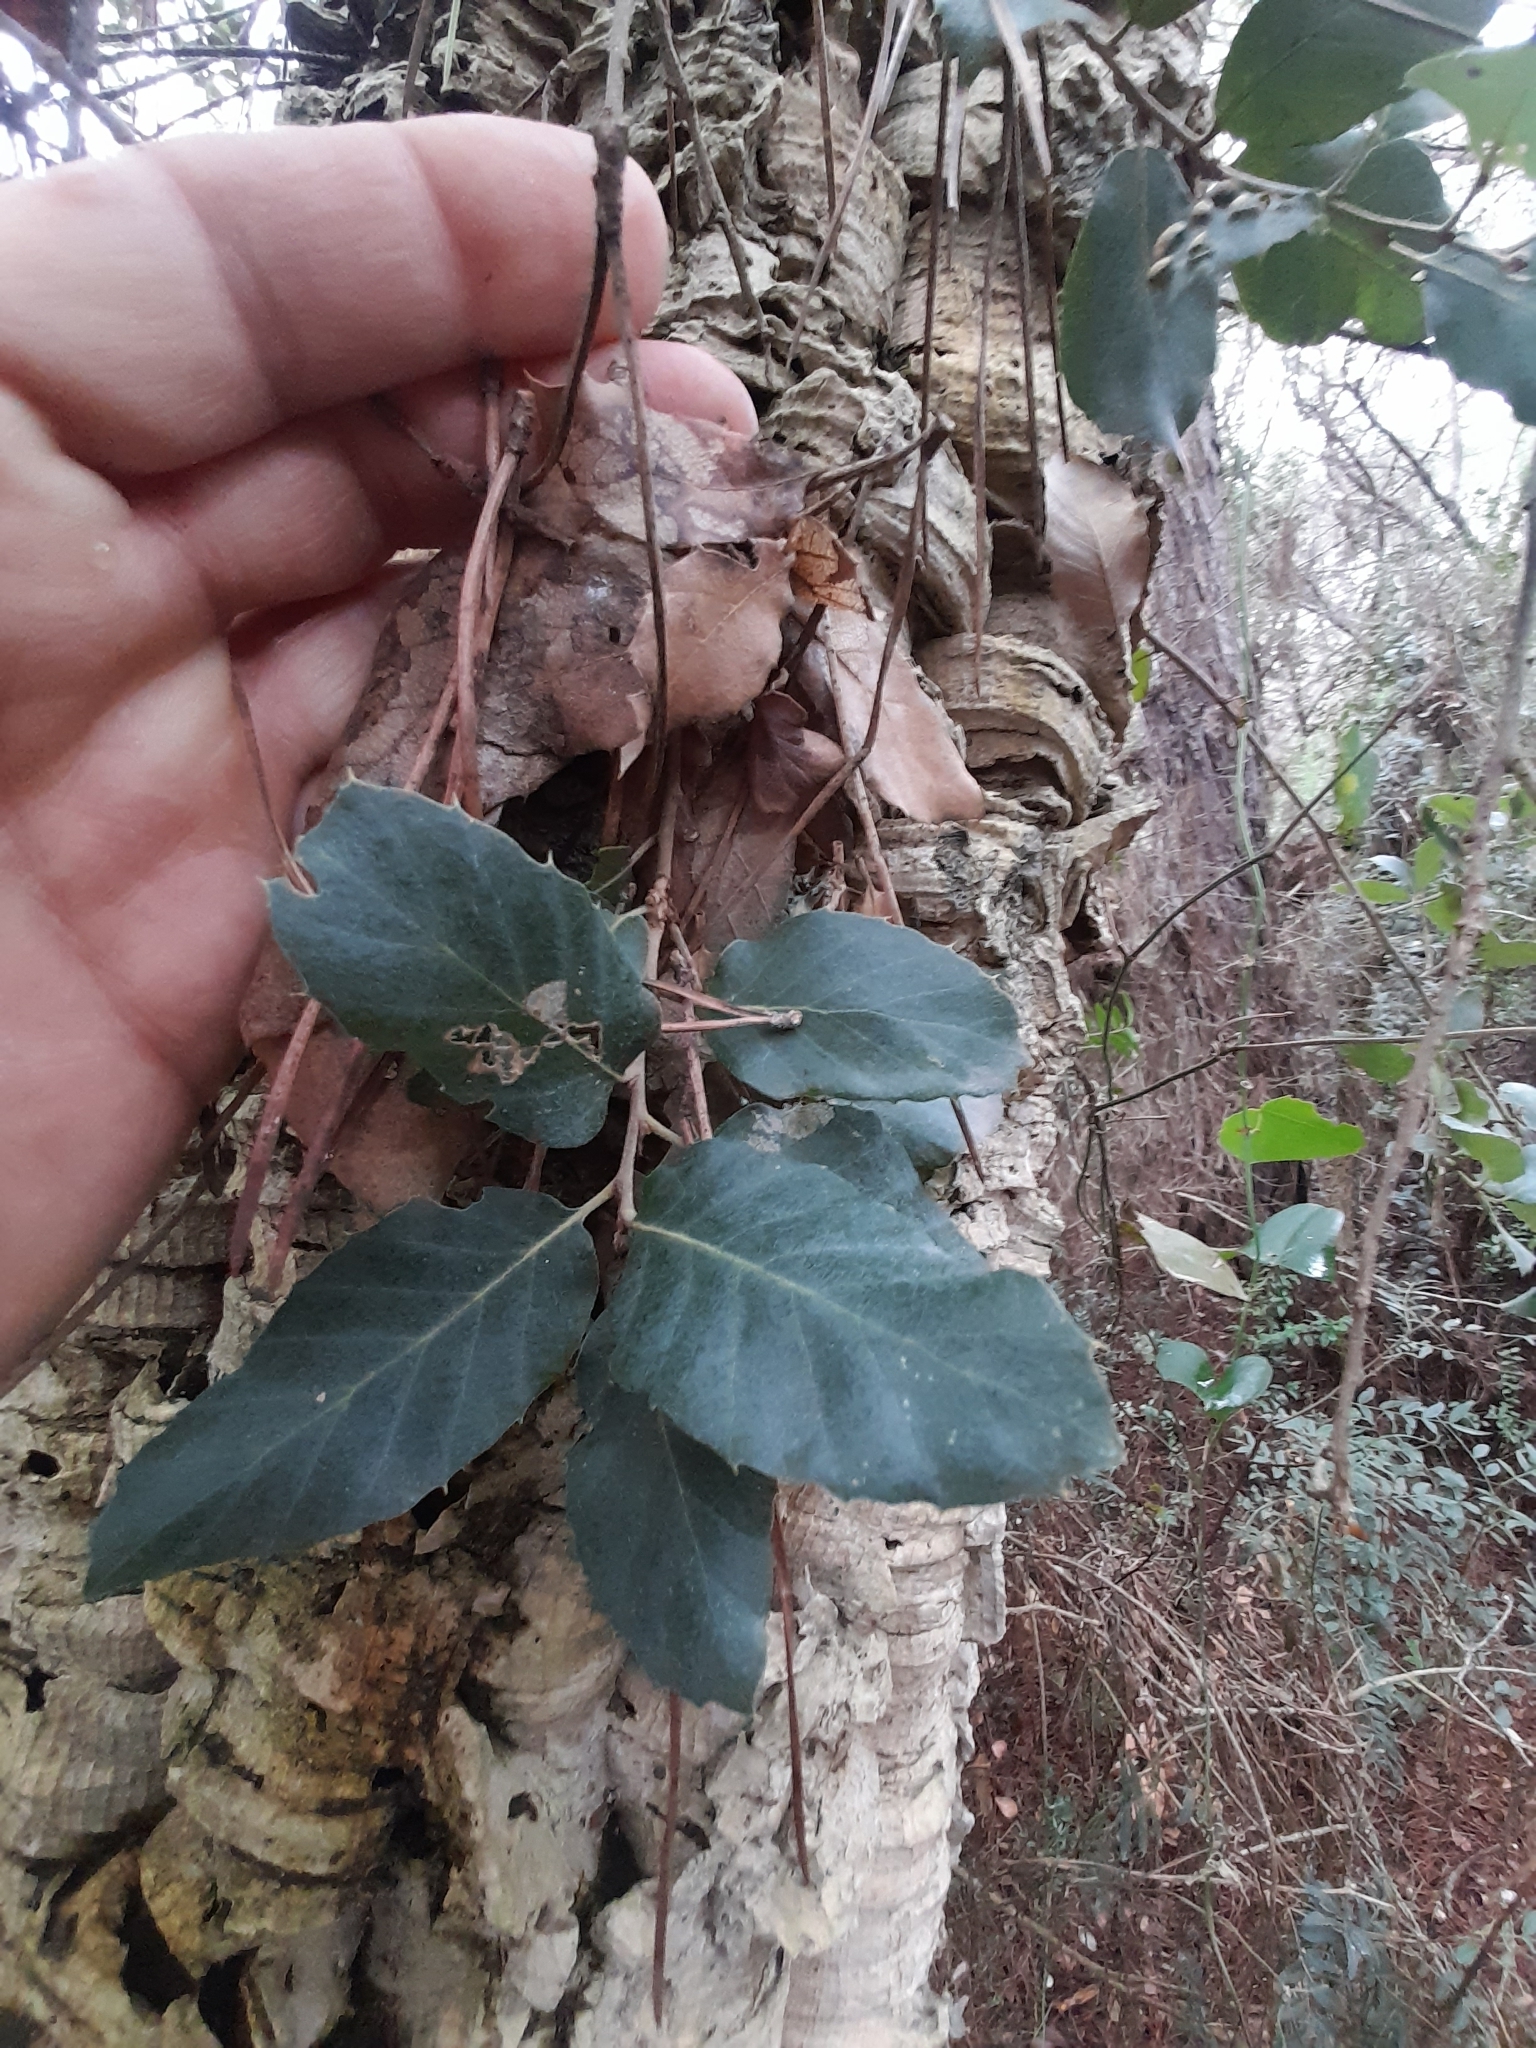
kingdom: Plantae
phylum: Tracheophyta
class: Magnoliopsida
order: Fagales
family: Fagaceae
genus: Quercus
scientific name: Quercus suber
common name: Cork oak
